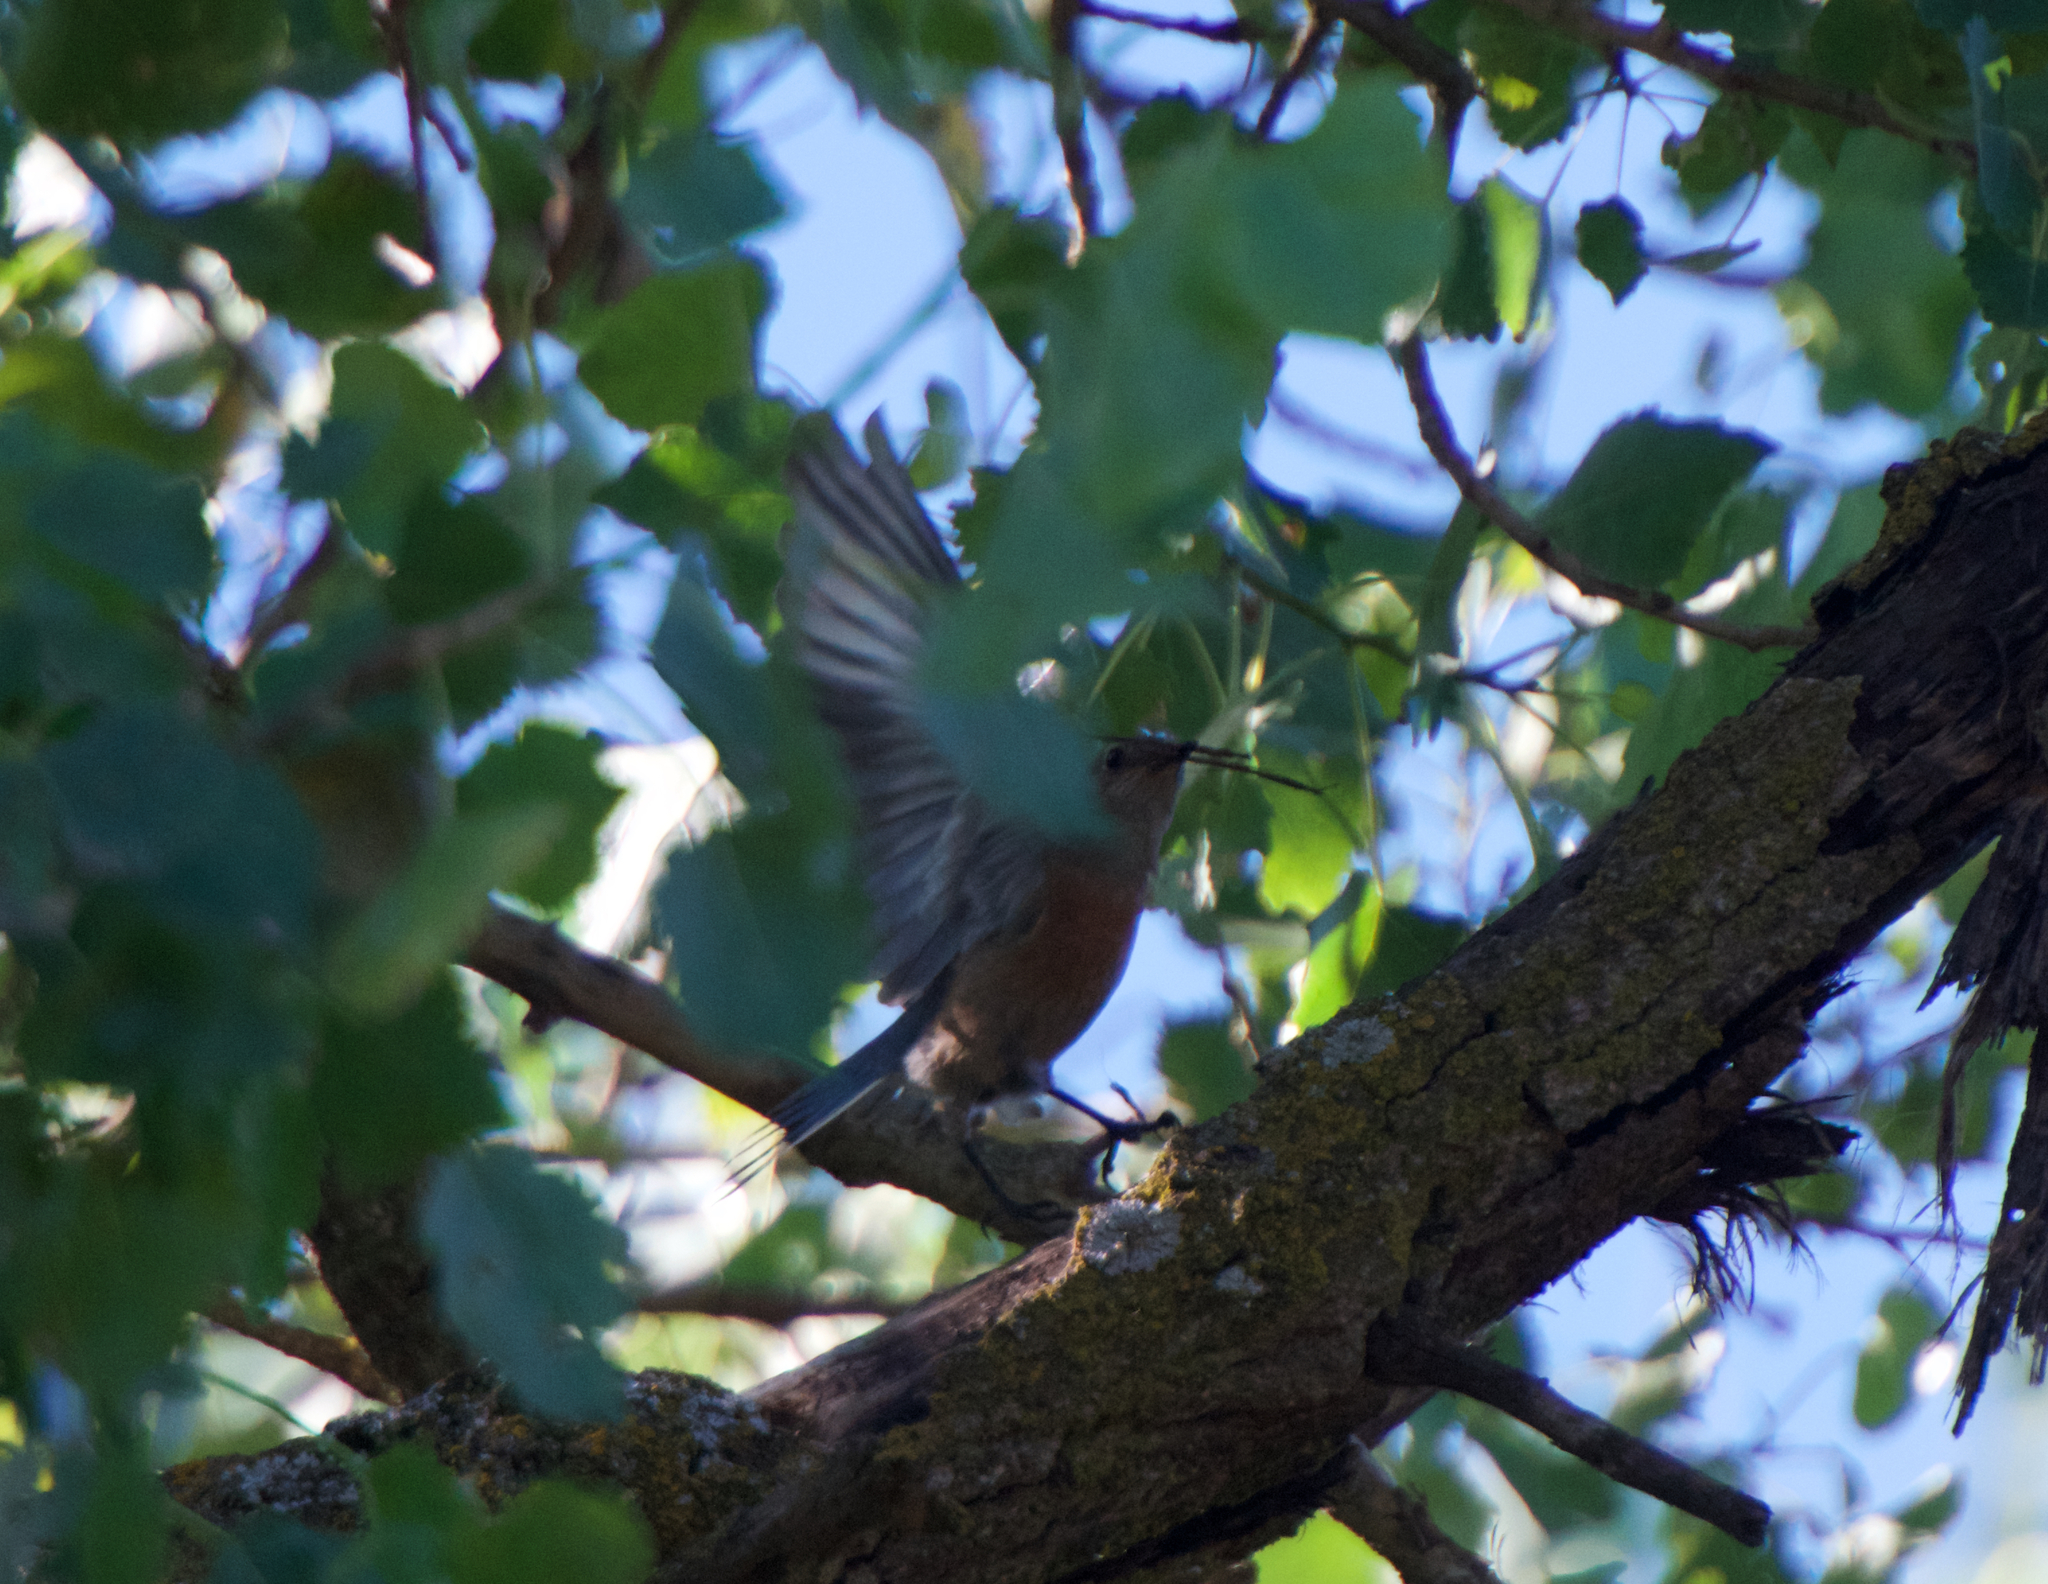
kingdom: Animalia
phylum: Chordata
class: Aves
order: Passeriformes
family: Turdidae
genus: Sialia
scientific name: Sialia mexicana
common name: Western bluebird
